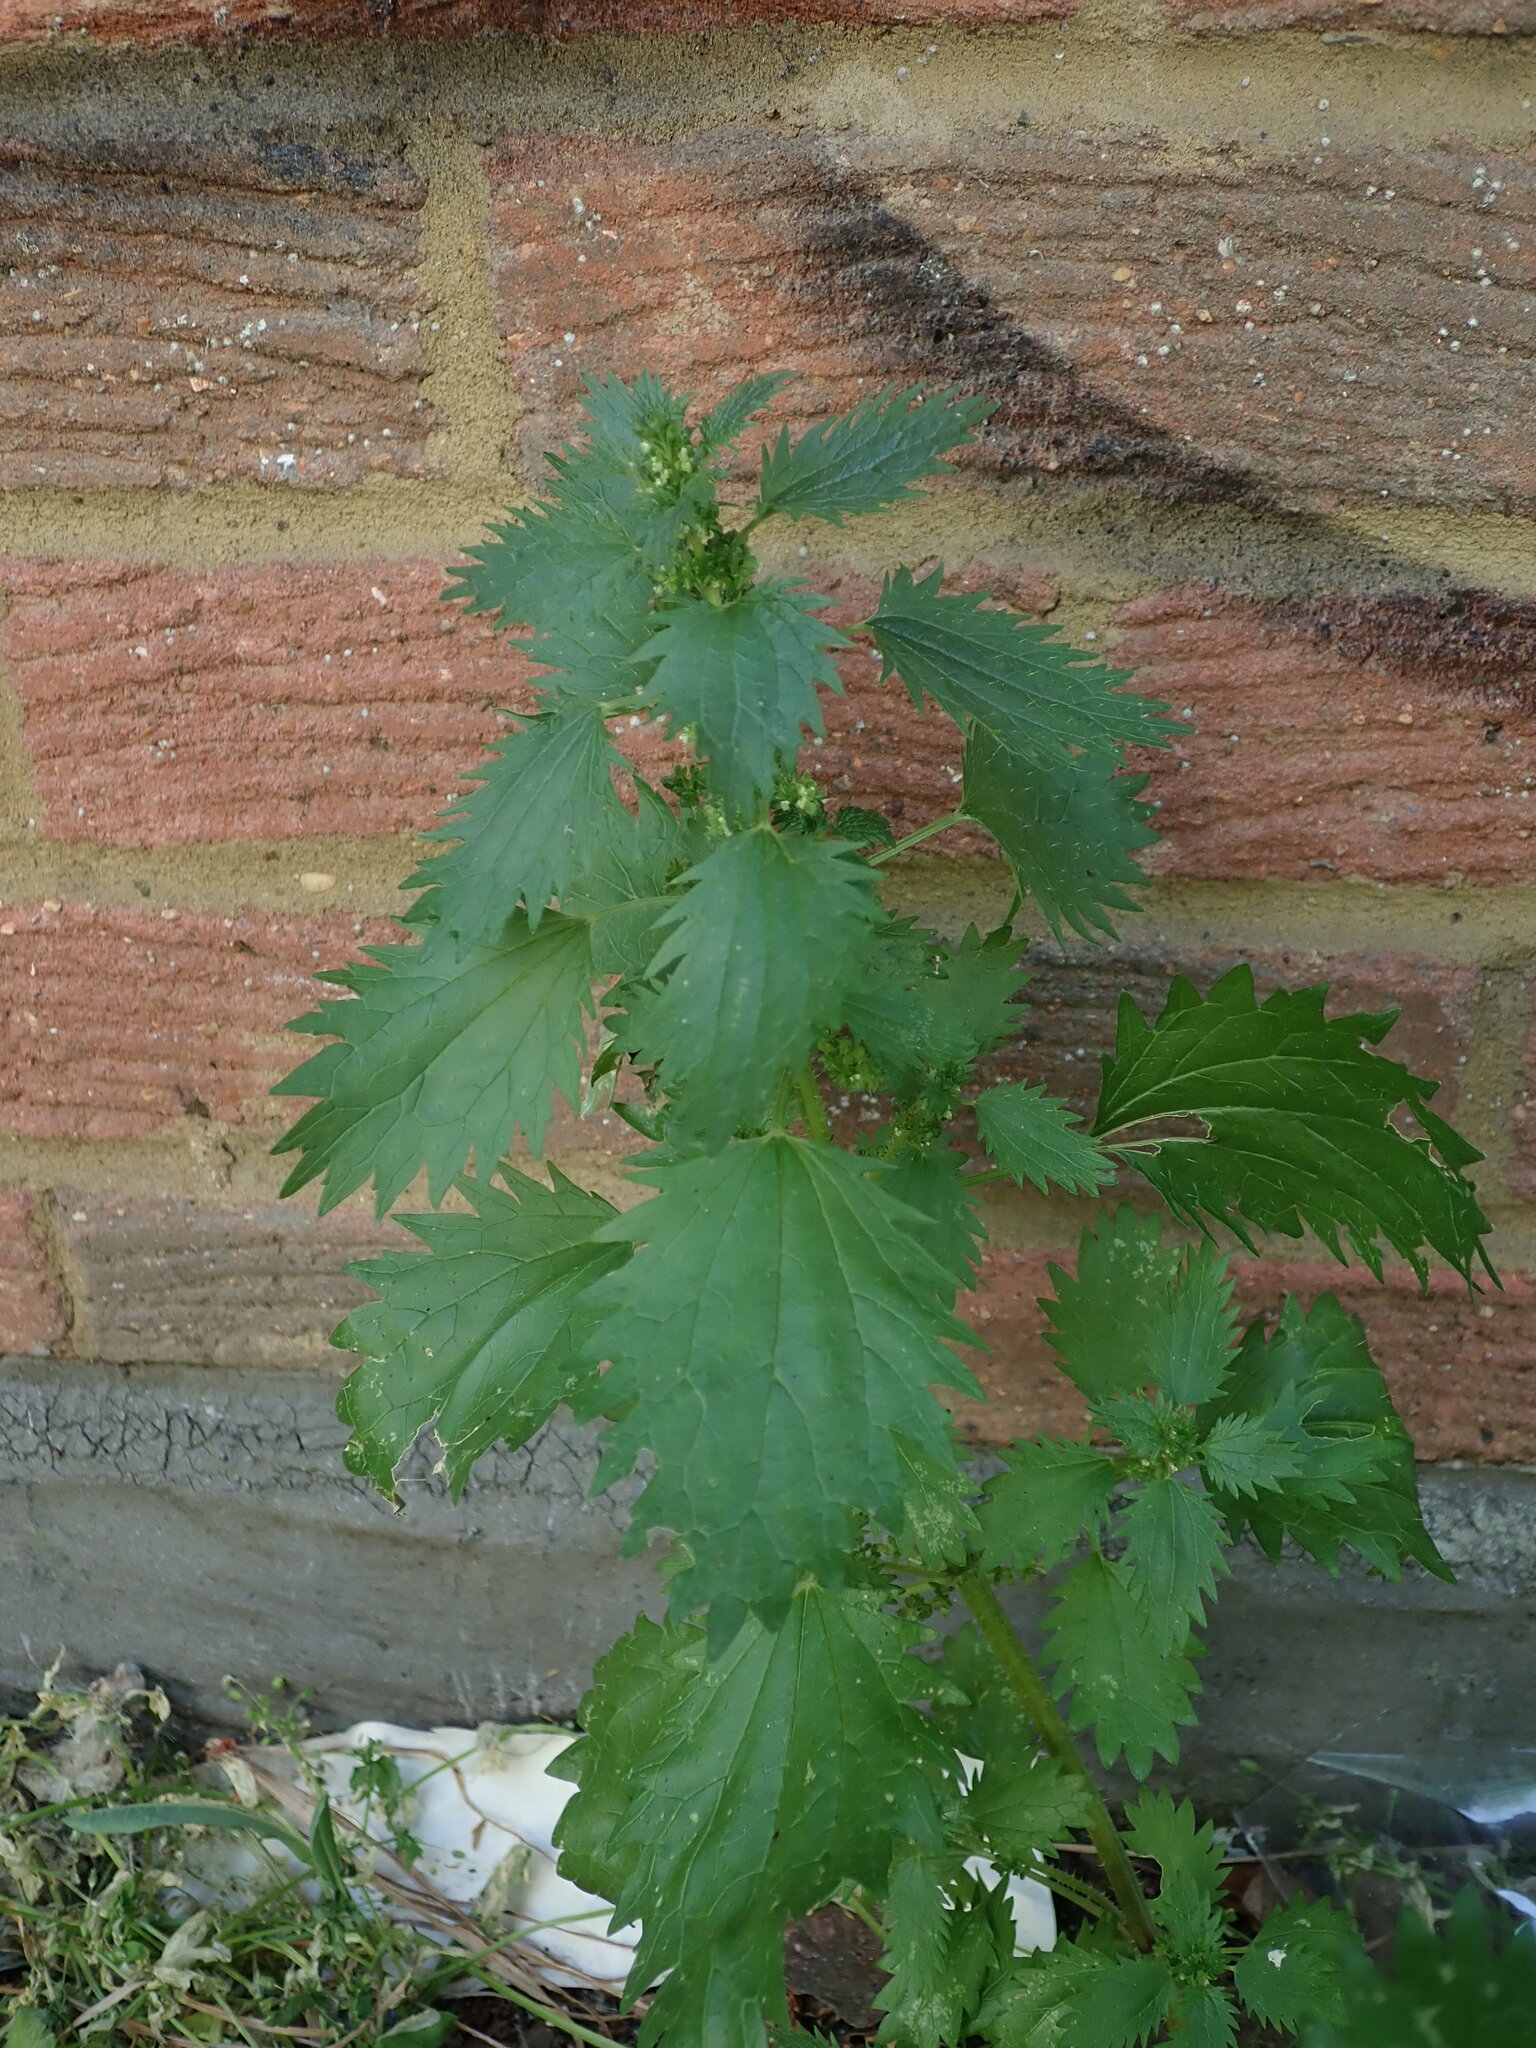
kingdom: Plantae
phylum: Tracheophyta
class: Magnoliopsida
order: Rosales
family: Urticaceae
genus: Urtica
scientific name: Urtica urens
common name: Dwarf nettle
